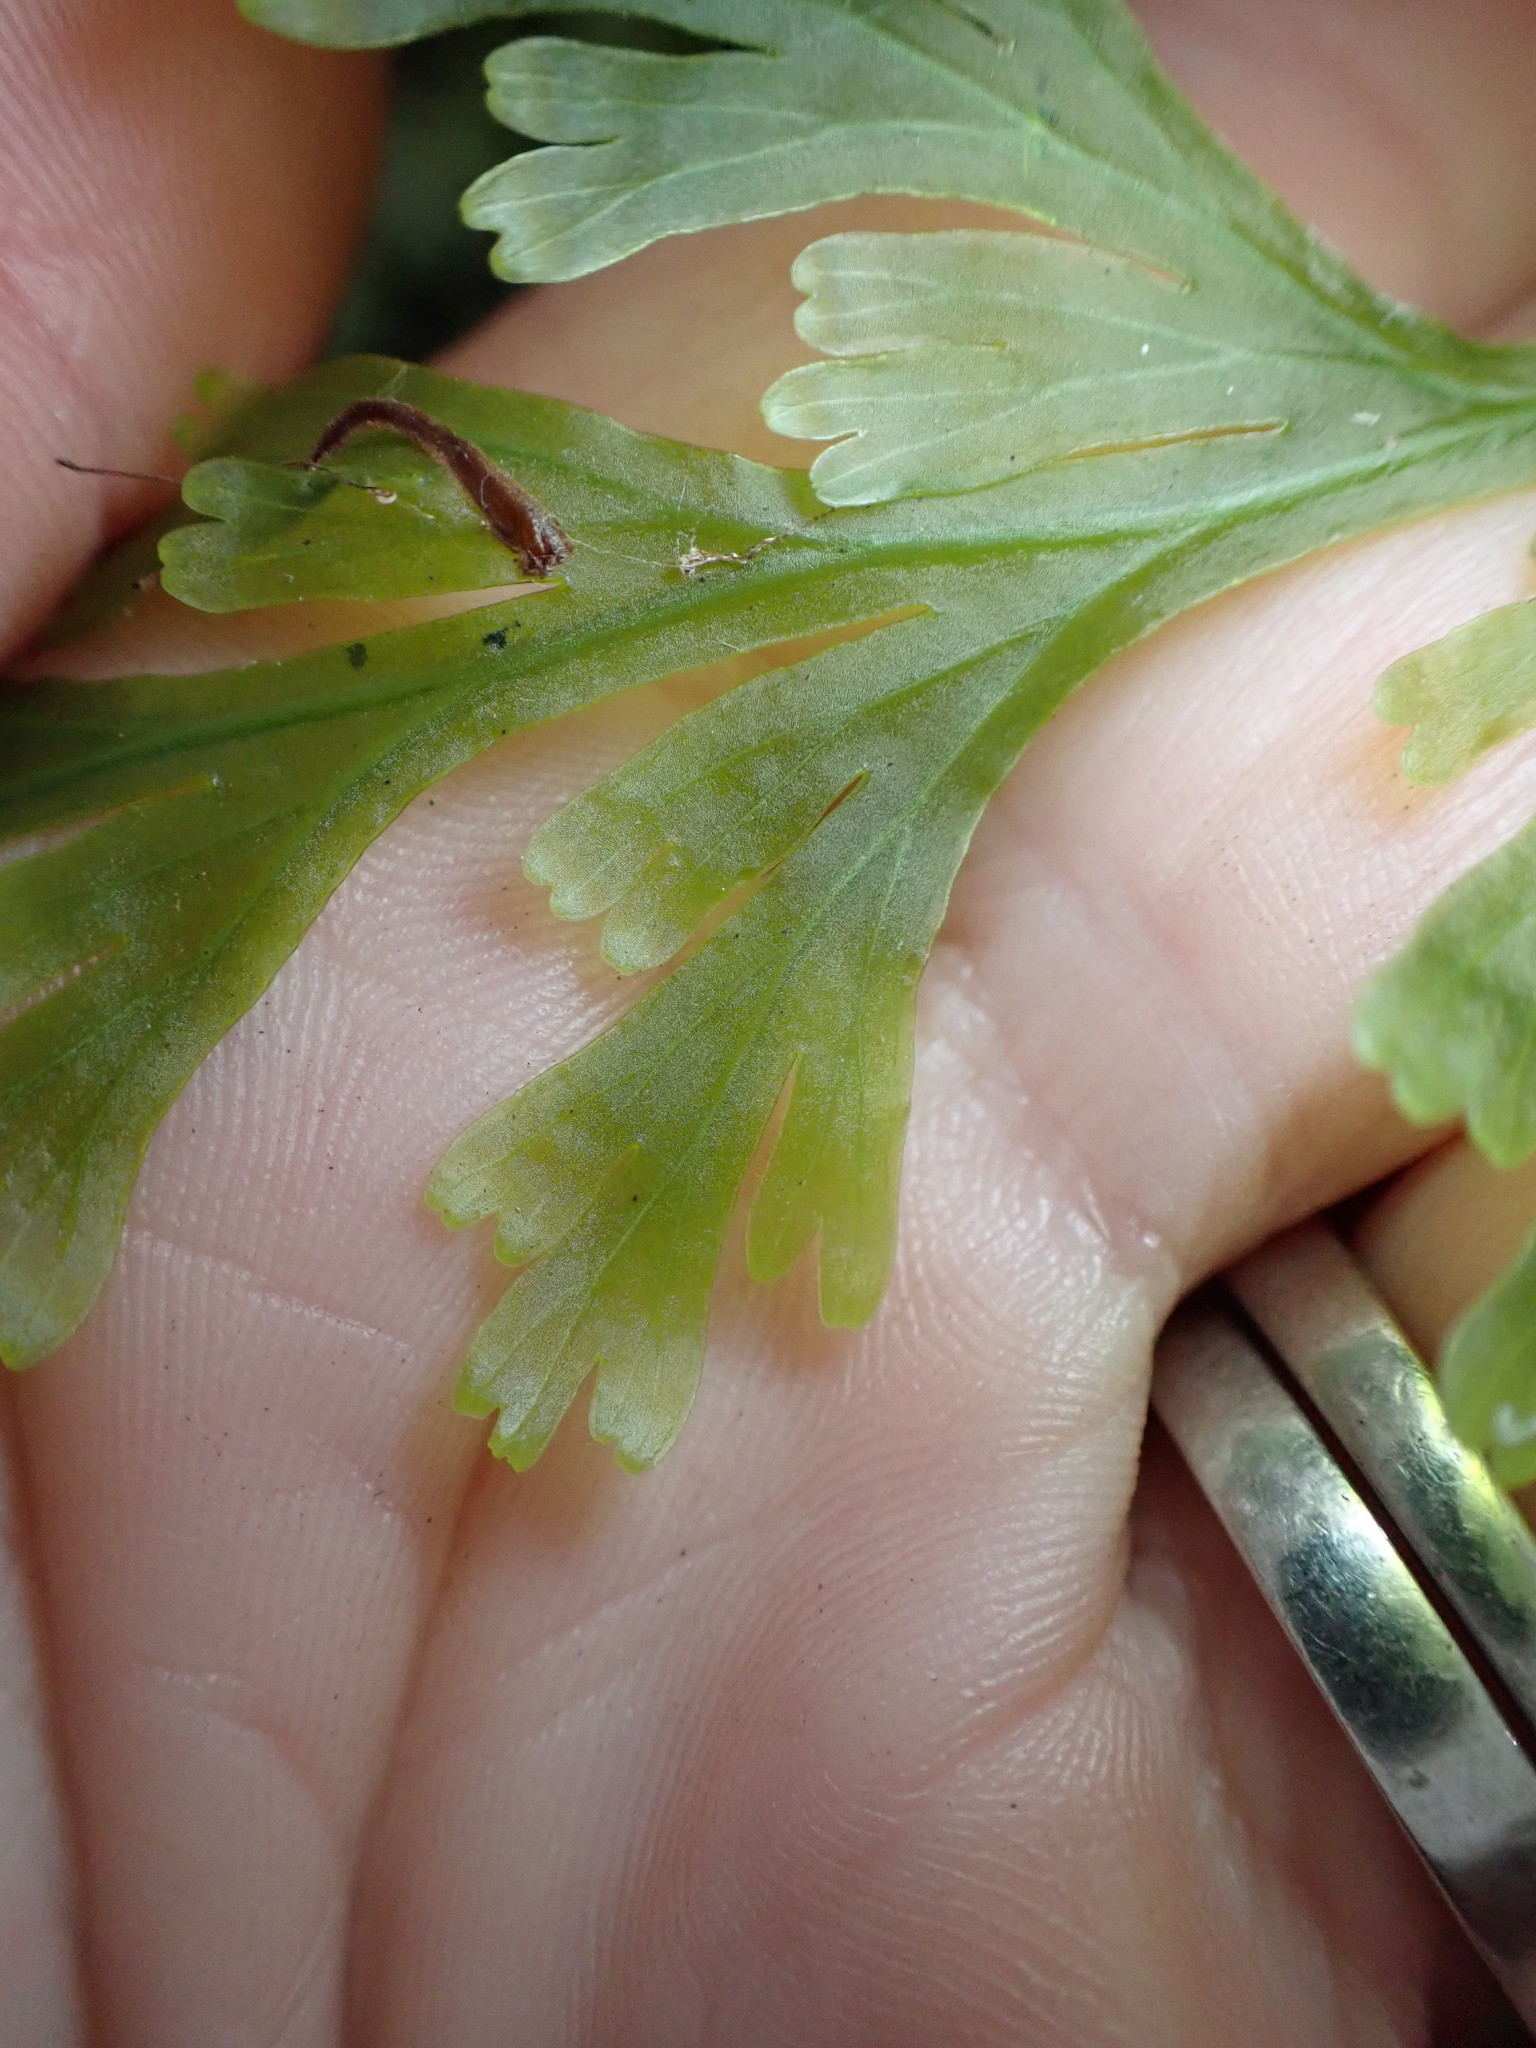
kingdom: Plantae
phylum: Tracheophyta
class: Polypodiopsida
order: Hymenophyllales
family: Hymenophyllaceae
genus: Hymenophyllum
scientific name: Hymenophyllum dilatatum
